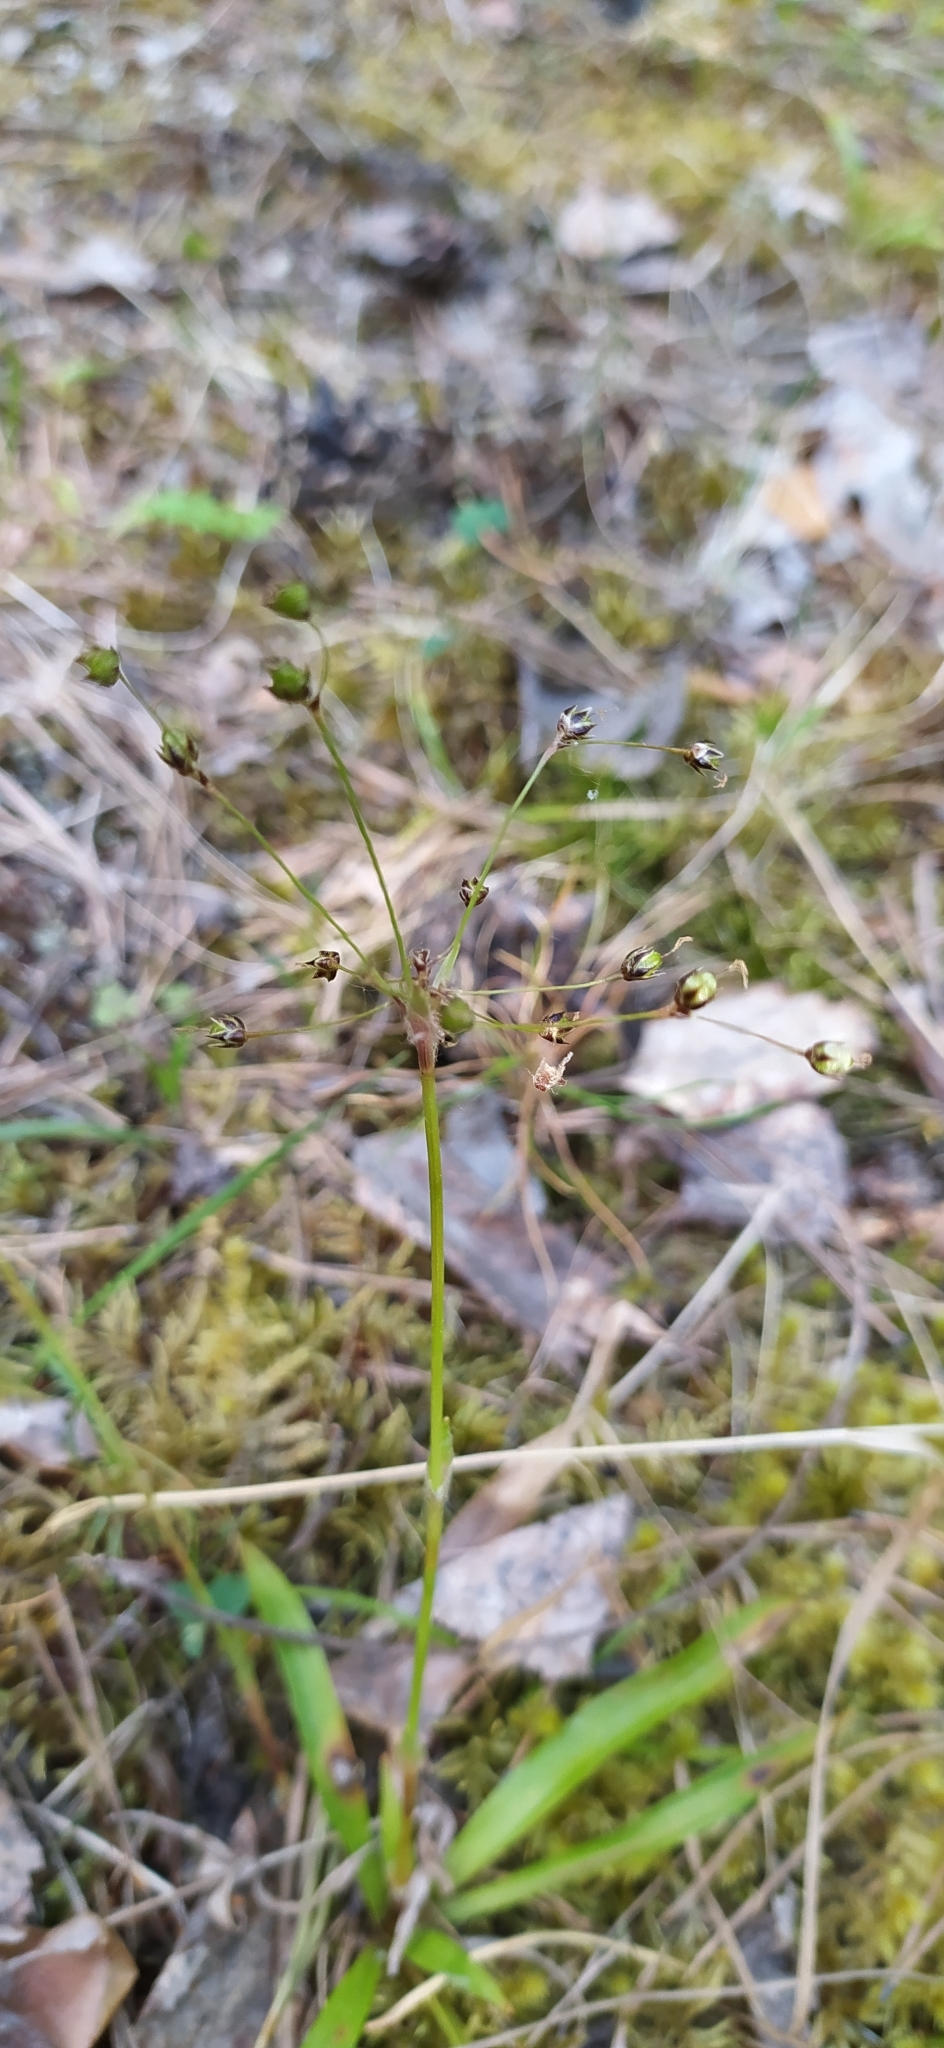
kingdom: Plantae
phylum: Tracheophyta
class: Liliopsida
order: Poales
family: Juncaceae
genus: Luzula
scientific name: Luzula pilosa
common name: Hairy wood-rush
